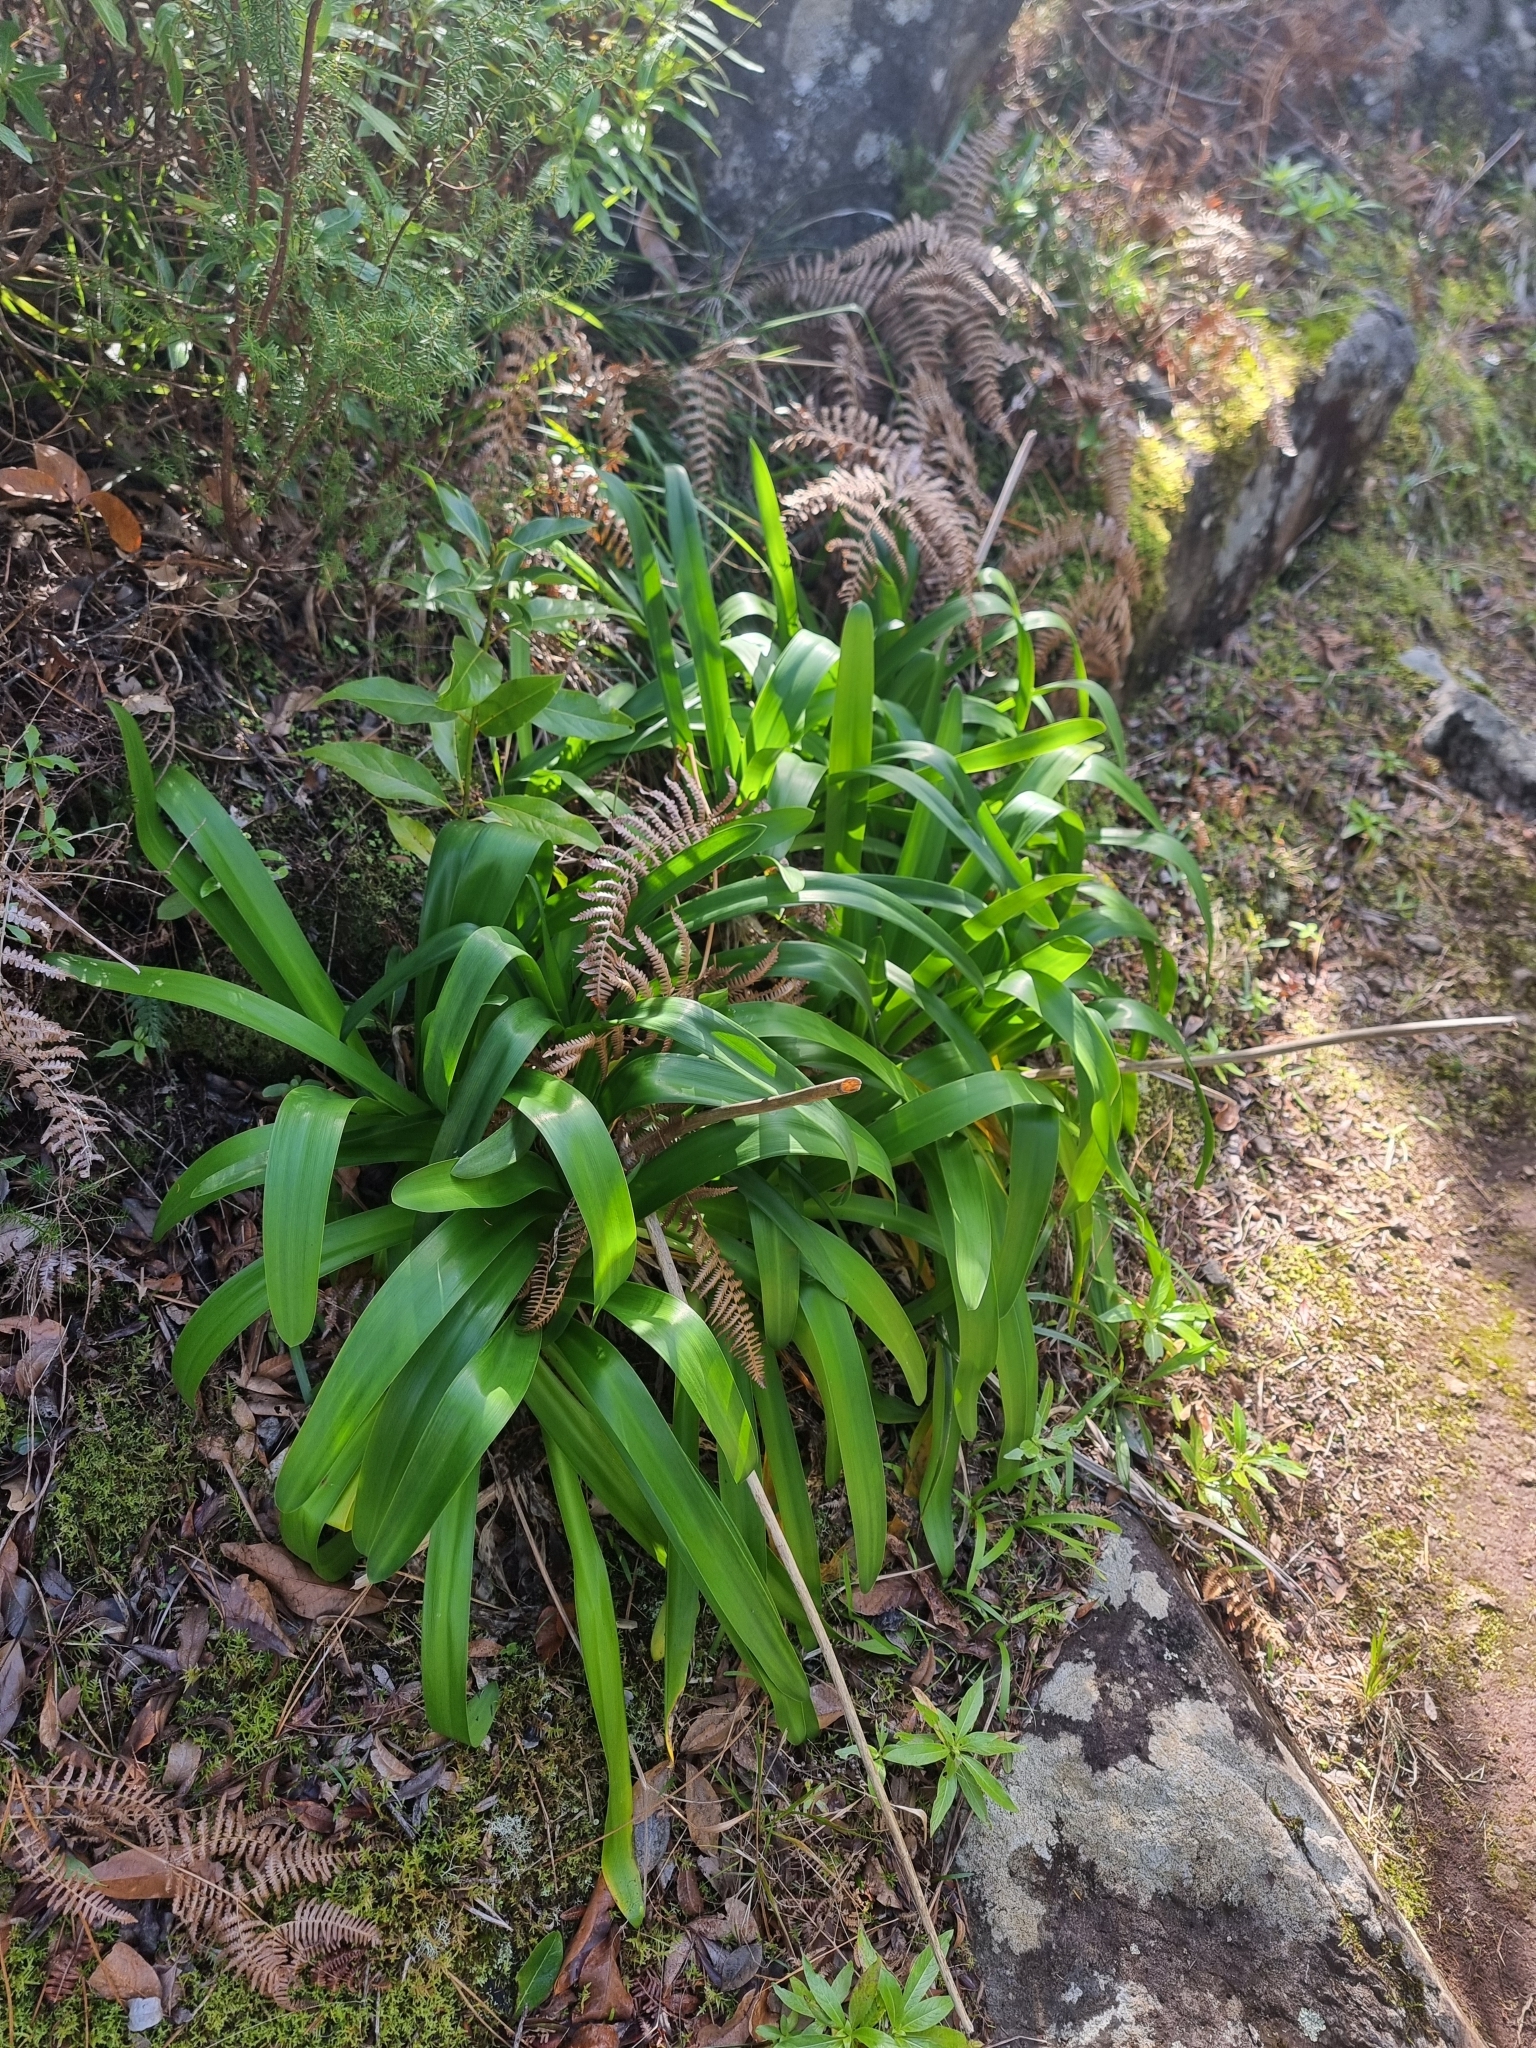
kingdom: Plantae
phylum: Tracheophyta
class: Liliopsida
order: Asparagales
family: Amaryllidaceae
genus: Agapanthus
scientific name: Agapanthus praecox
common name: African-lily
